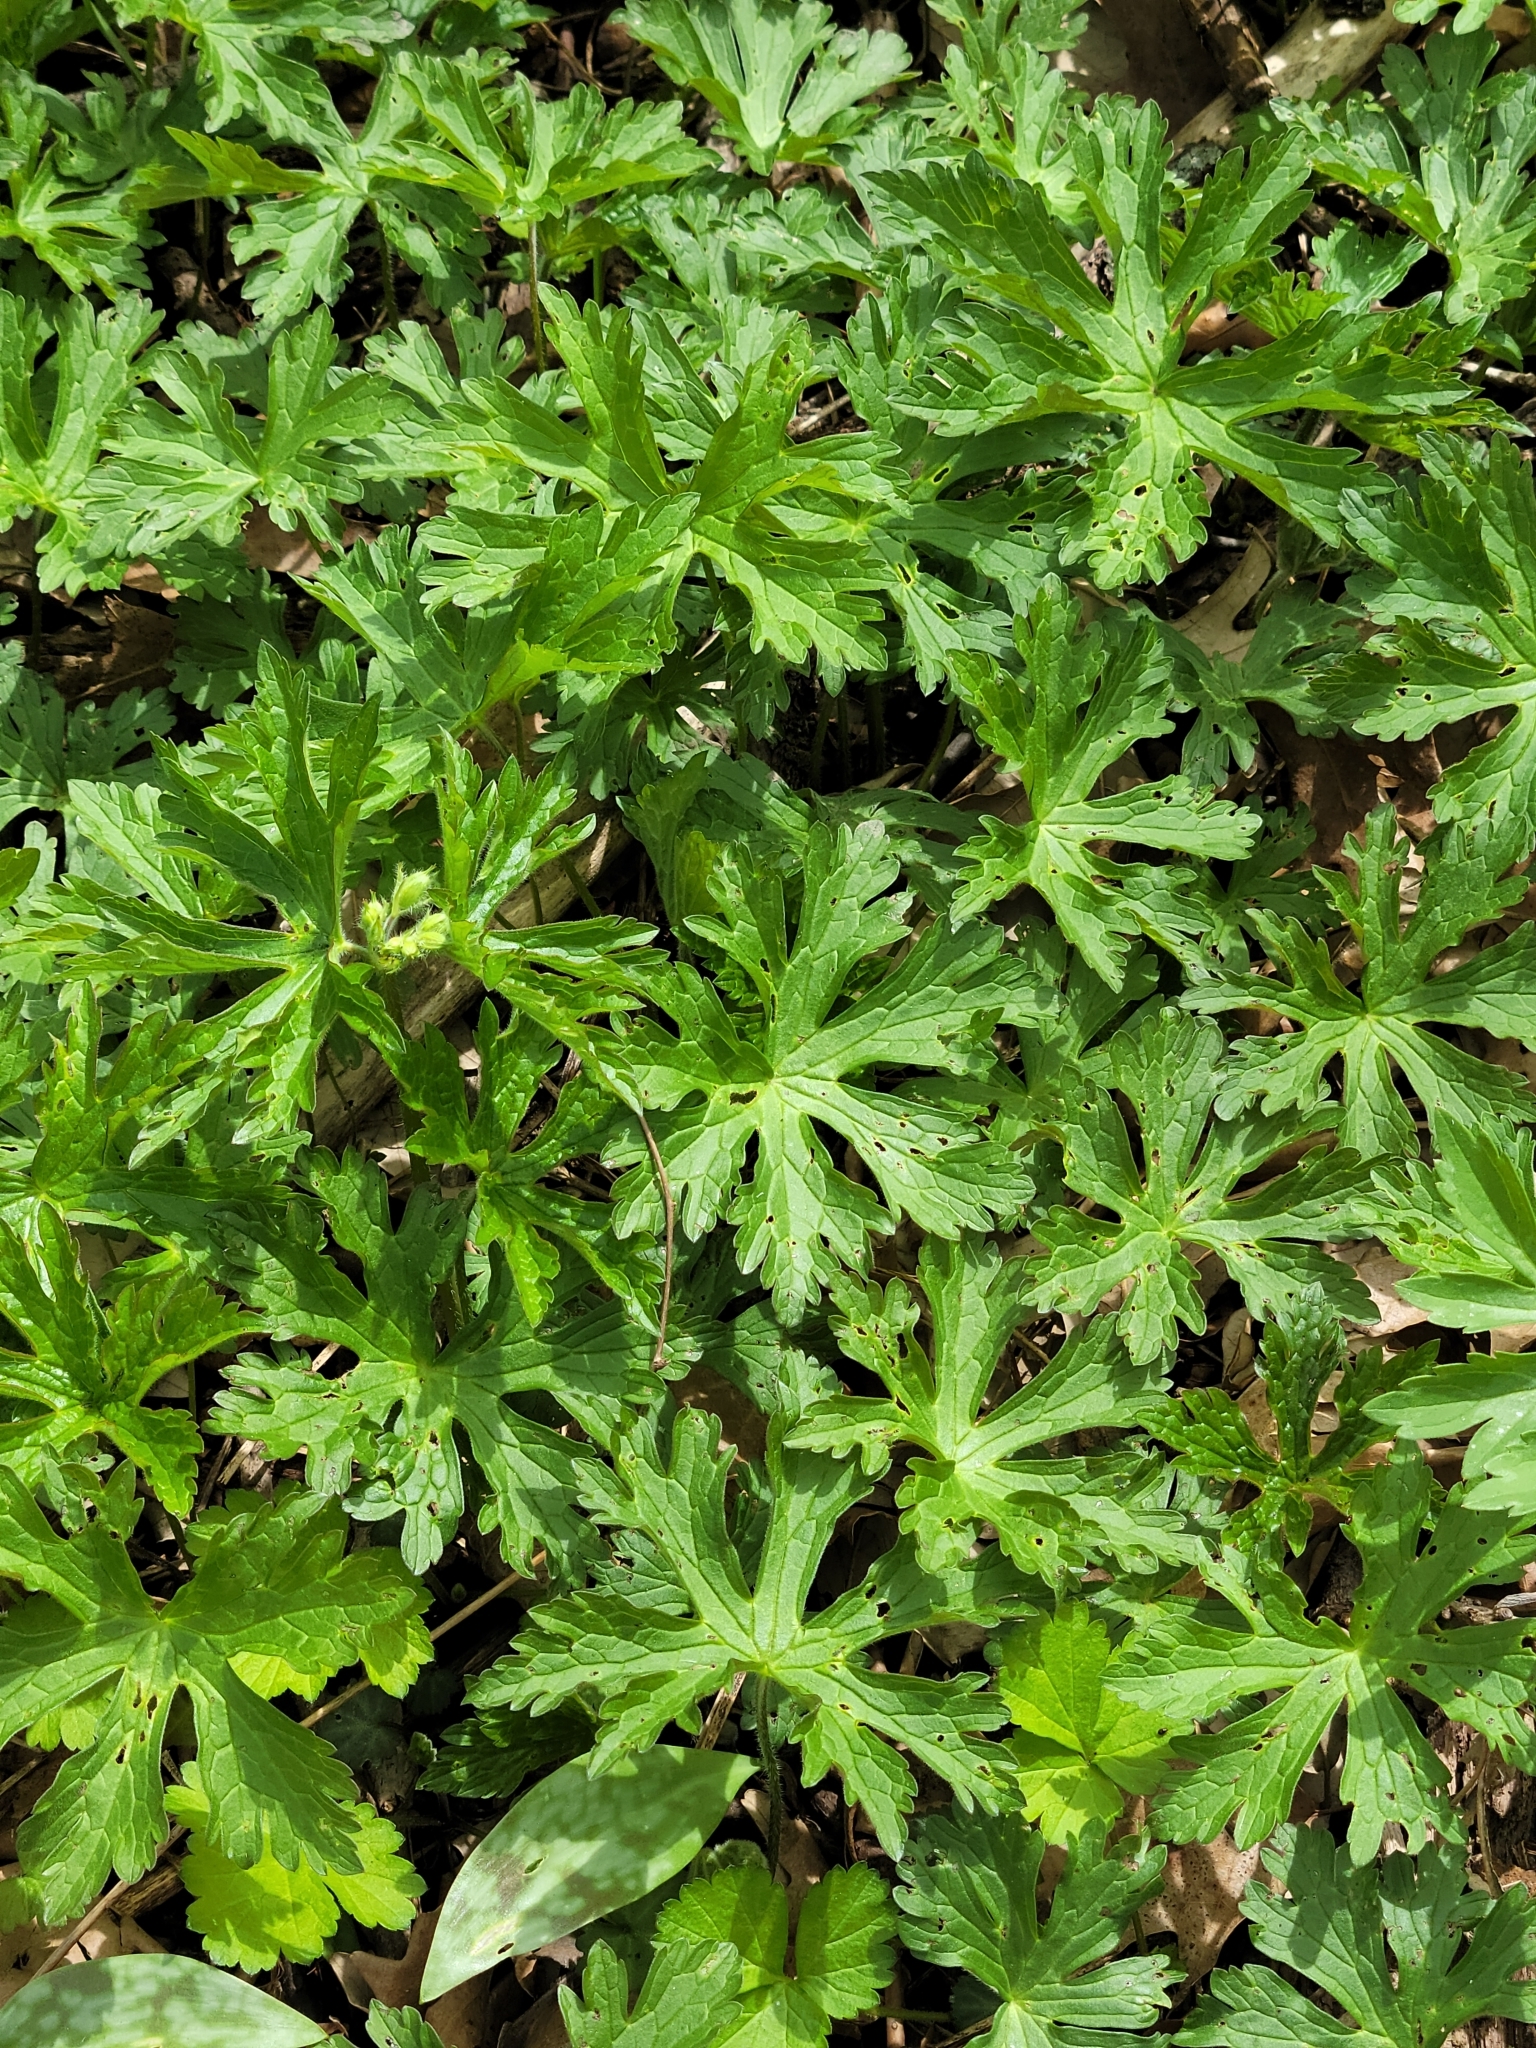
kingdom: Plantae
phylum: Tracheophyta
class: Magnoliopsida
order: Geraniales
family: Geraniaceae
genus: Geranium
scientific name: Geranium maculatum
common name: Spotted geranium
